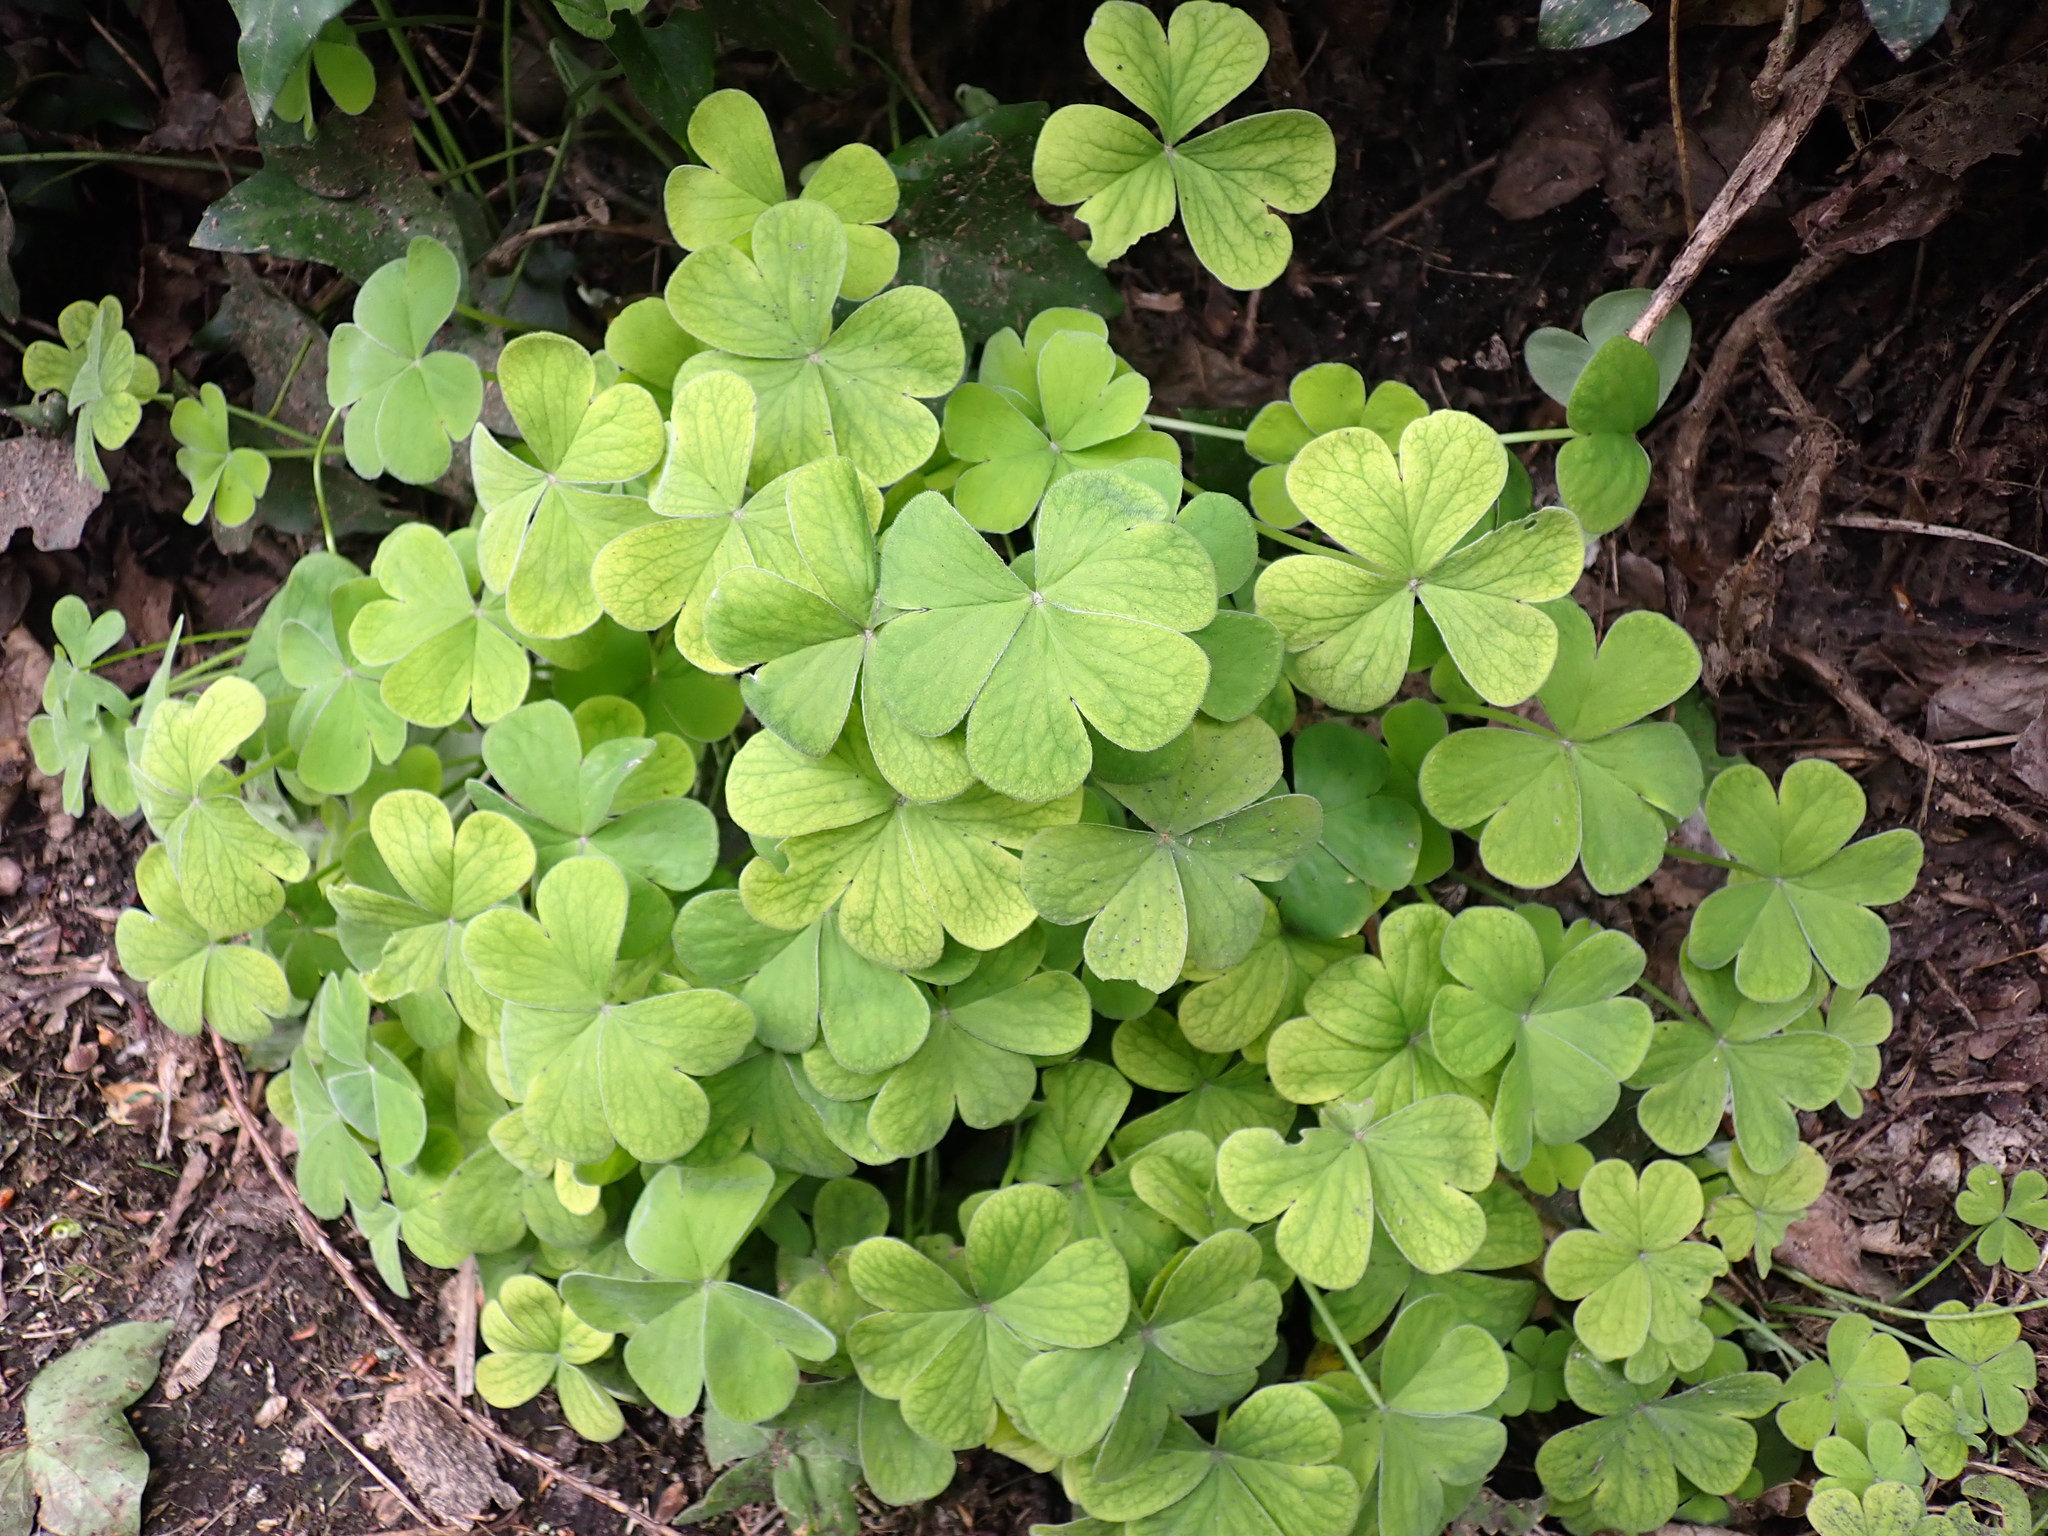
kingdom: Plantae
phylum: Tracheophyta
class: Magnoliopsida
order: Oxalidales
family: Oxalidaceae
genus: Oxalis
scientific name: Oxalis articulata
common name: Pink-sorrel
